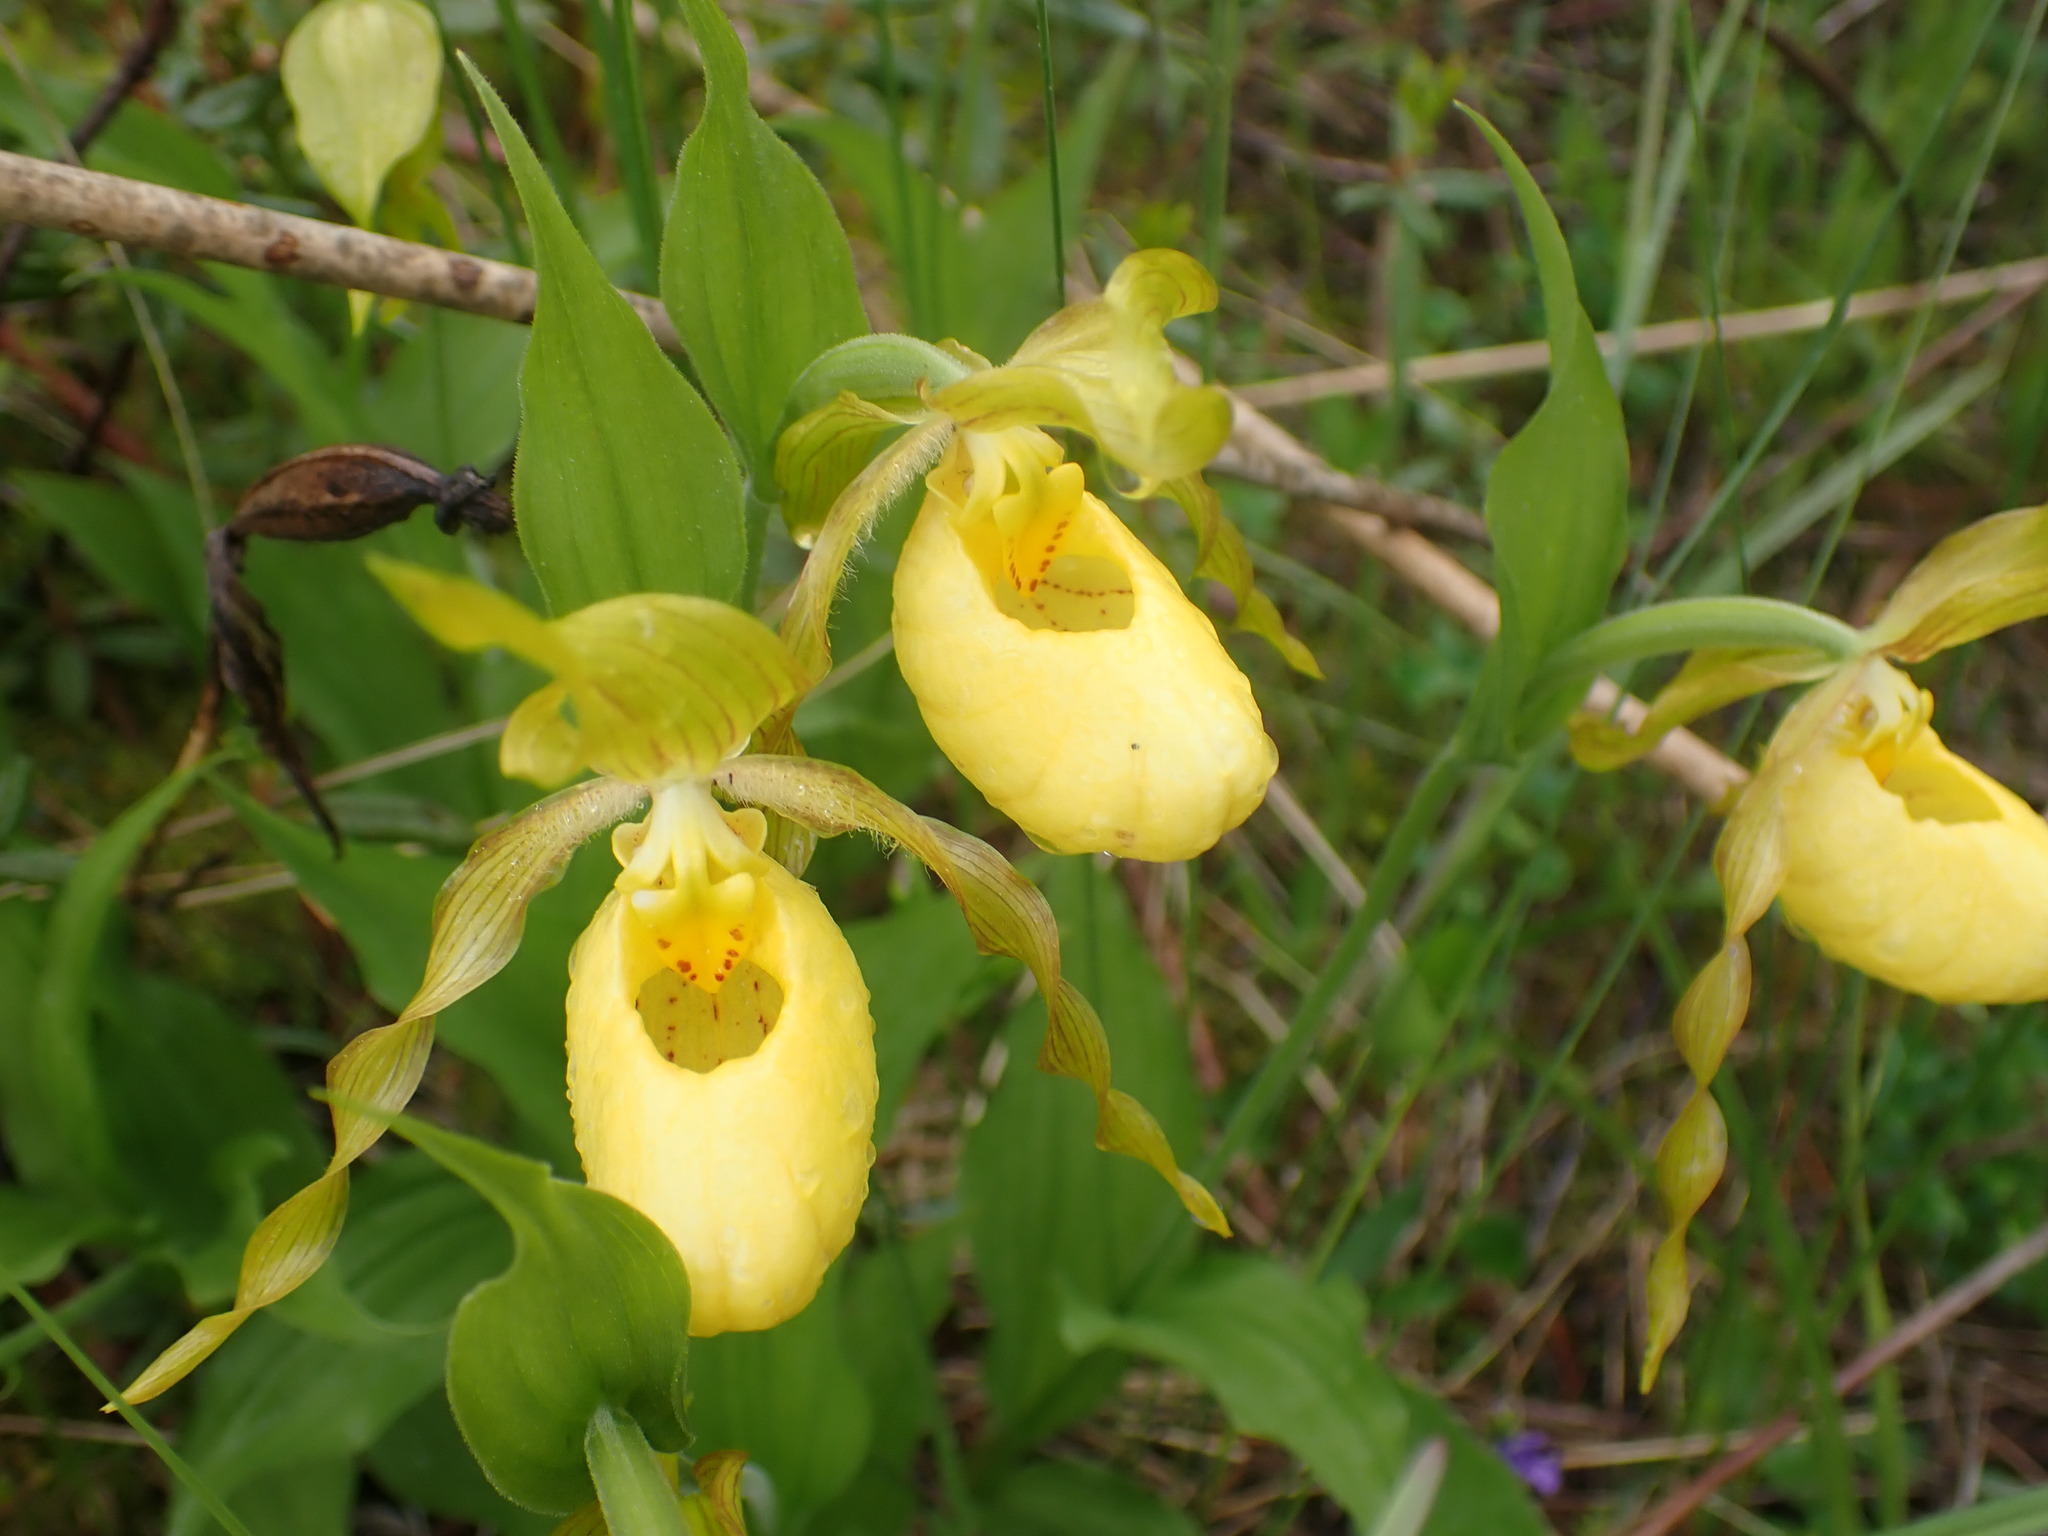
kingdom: Plantae
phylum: Tracheophyta
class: Liliopsida
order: Asparagales
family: Orchidaceae
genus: Cypripedium
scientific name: Cypripedium parviflorum
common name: American yellow lady's-slipper
